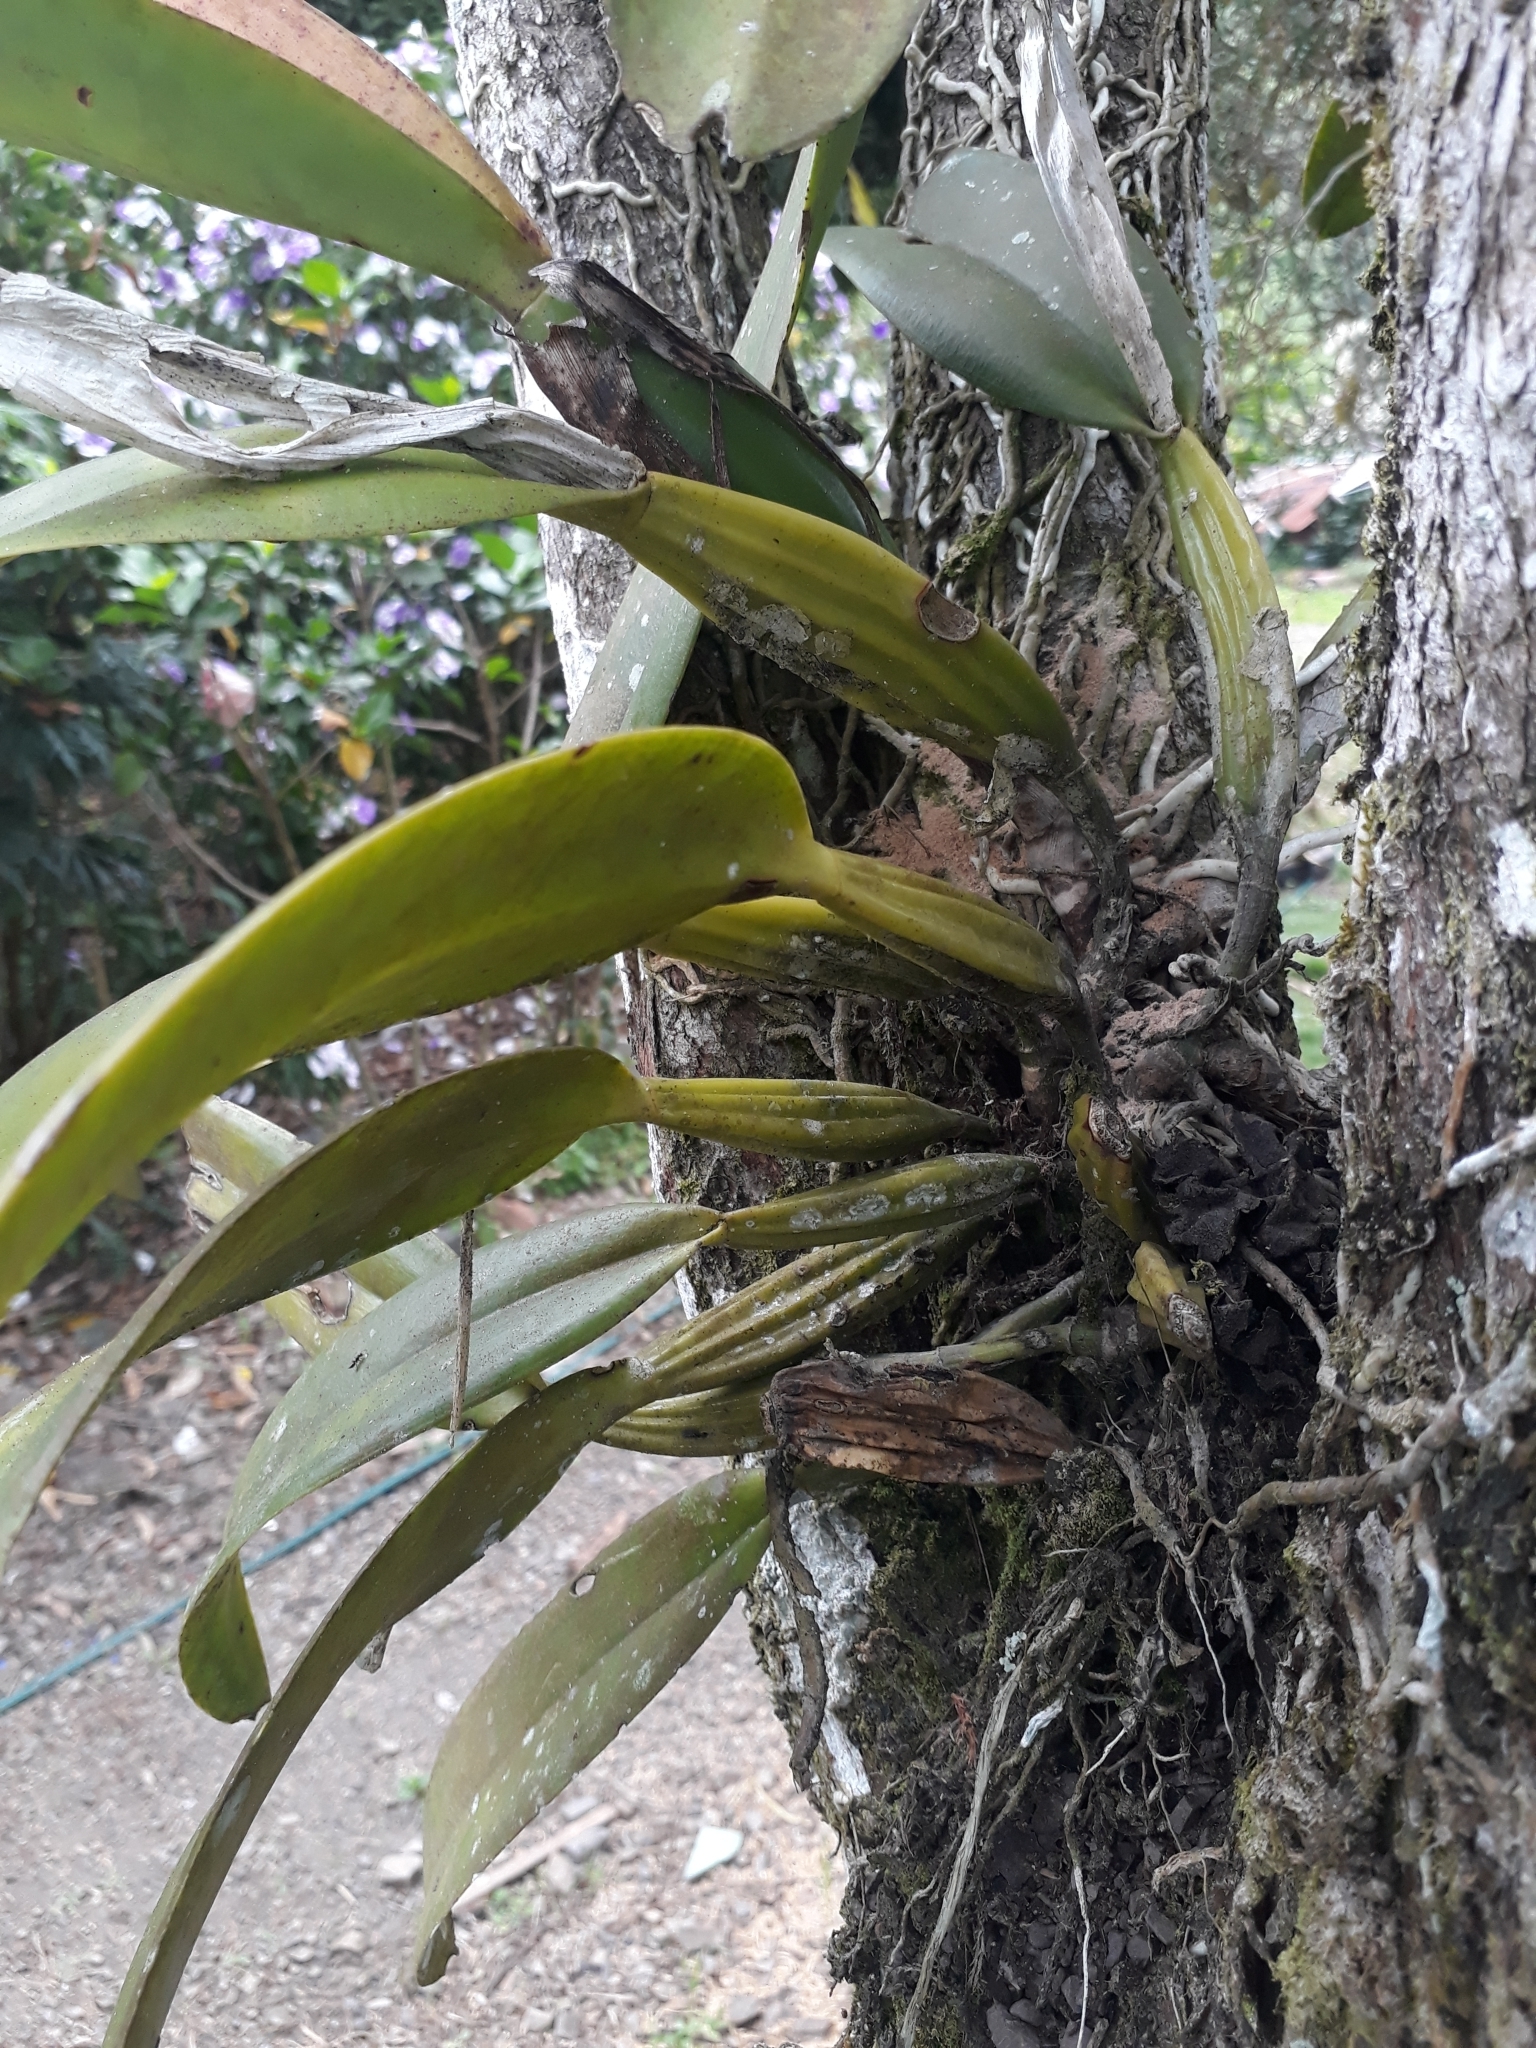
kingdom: Plantae
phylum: Tracheophyta
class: Liliopsida
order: Asparagales
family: Orchidaceae
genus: Cattleya
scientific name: Cattleya schroederae
